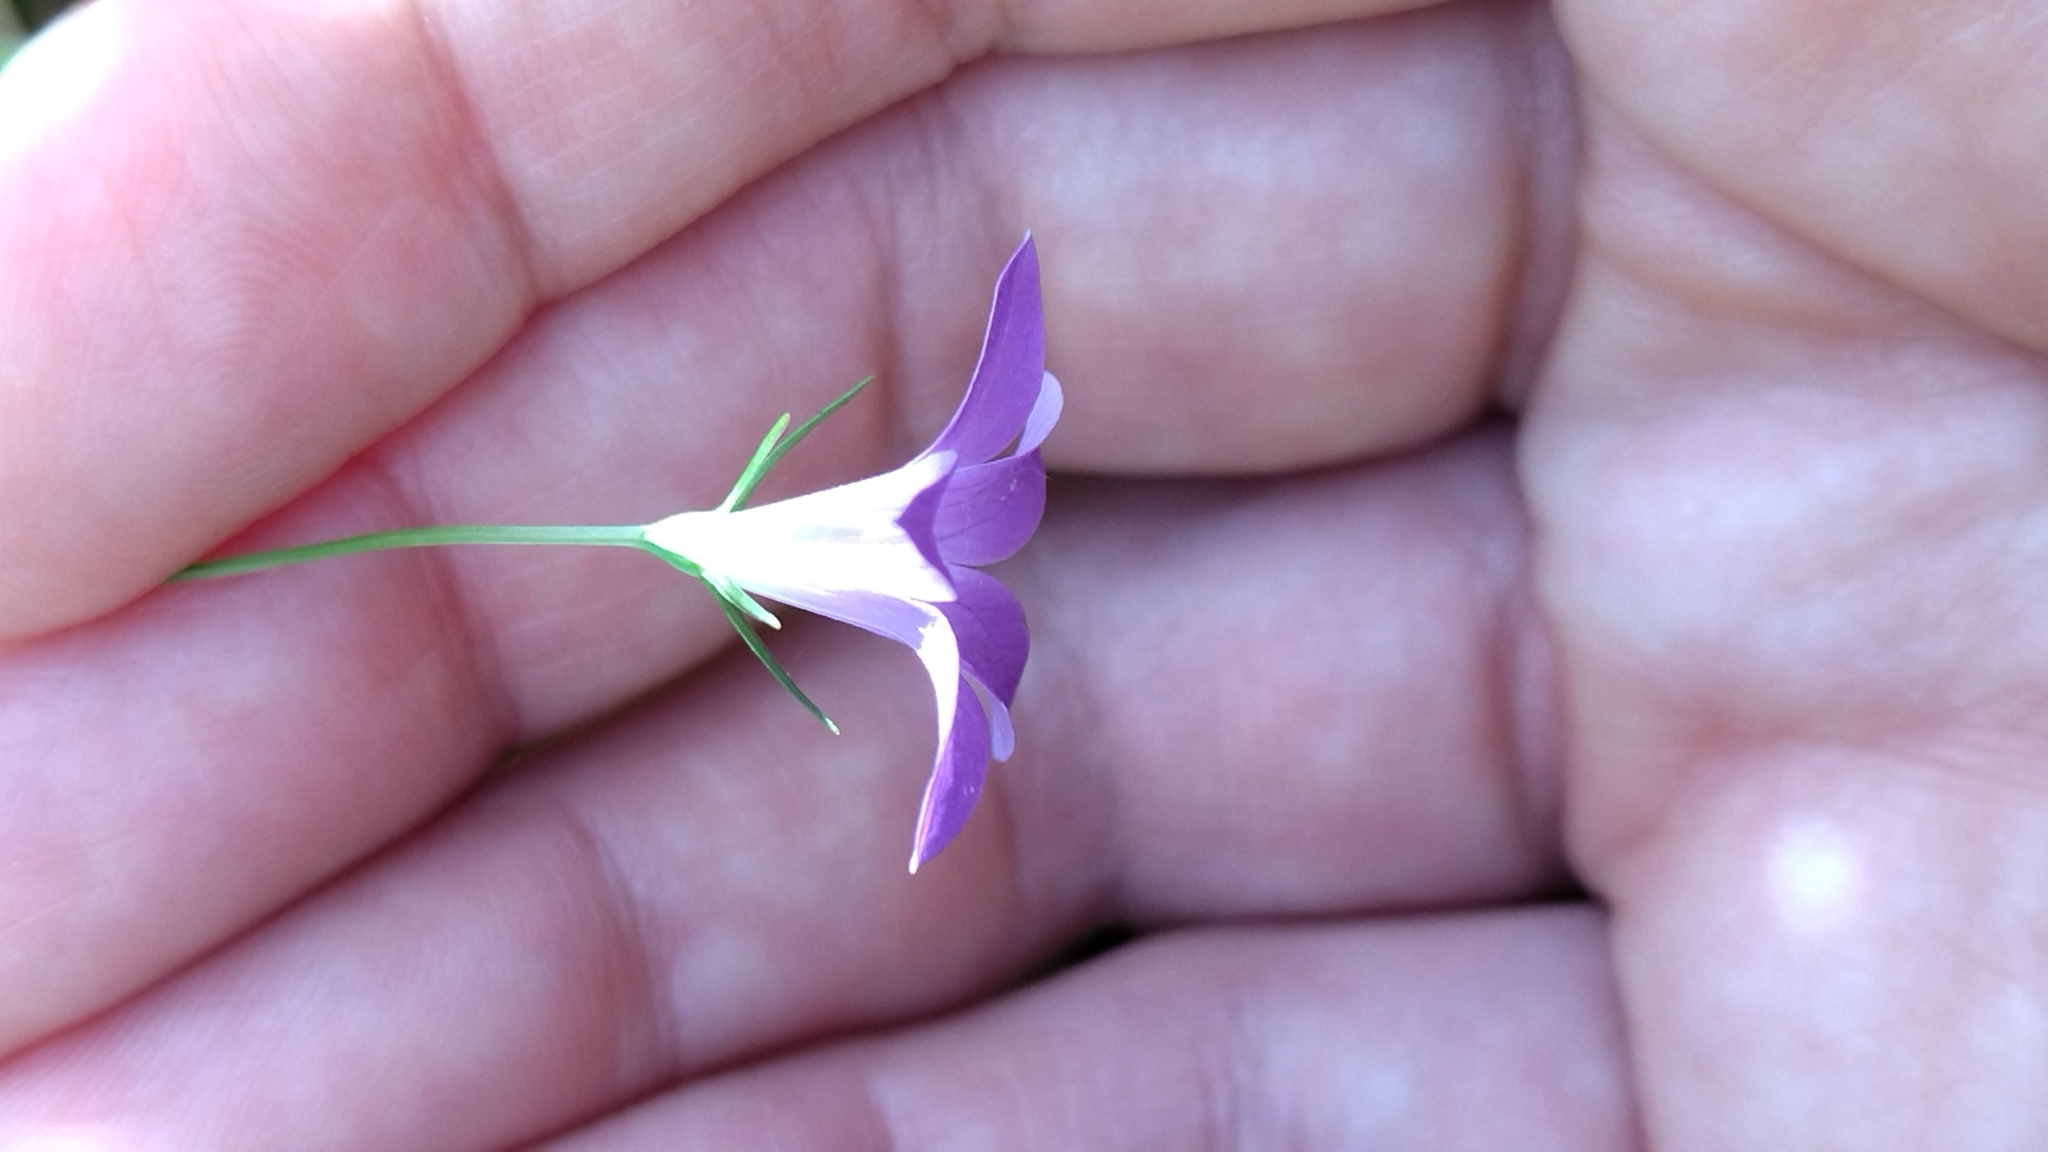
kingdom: Plantae
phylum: Tracheophyta
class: Magnoliopsida
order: Asterales
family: Campanulaceae
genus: Campanula
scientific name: Campanula patula
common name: Spreading bellflower
